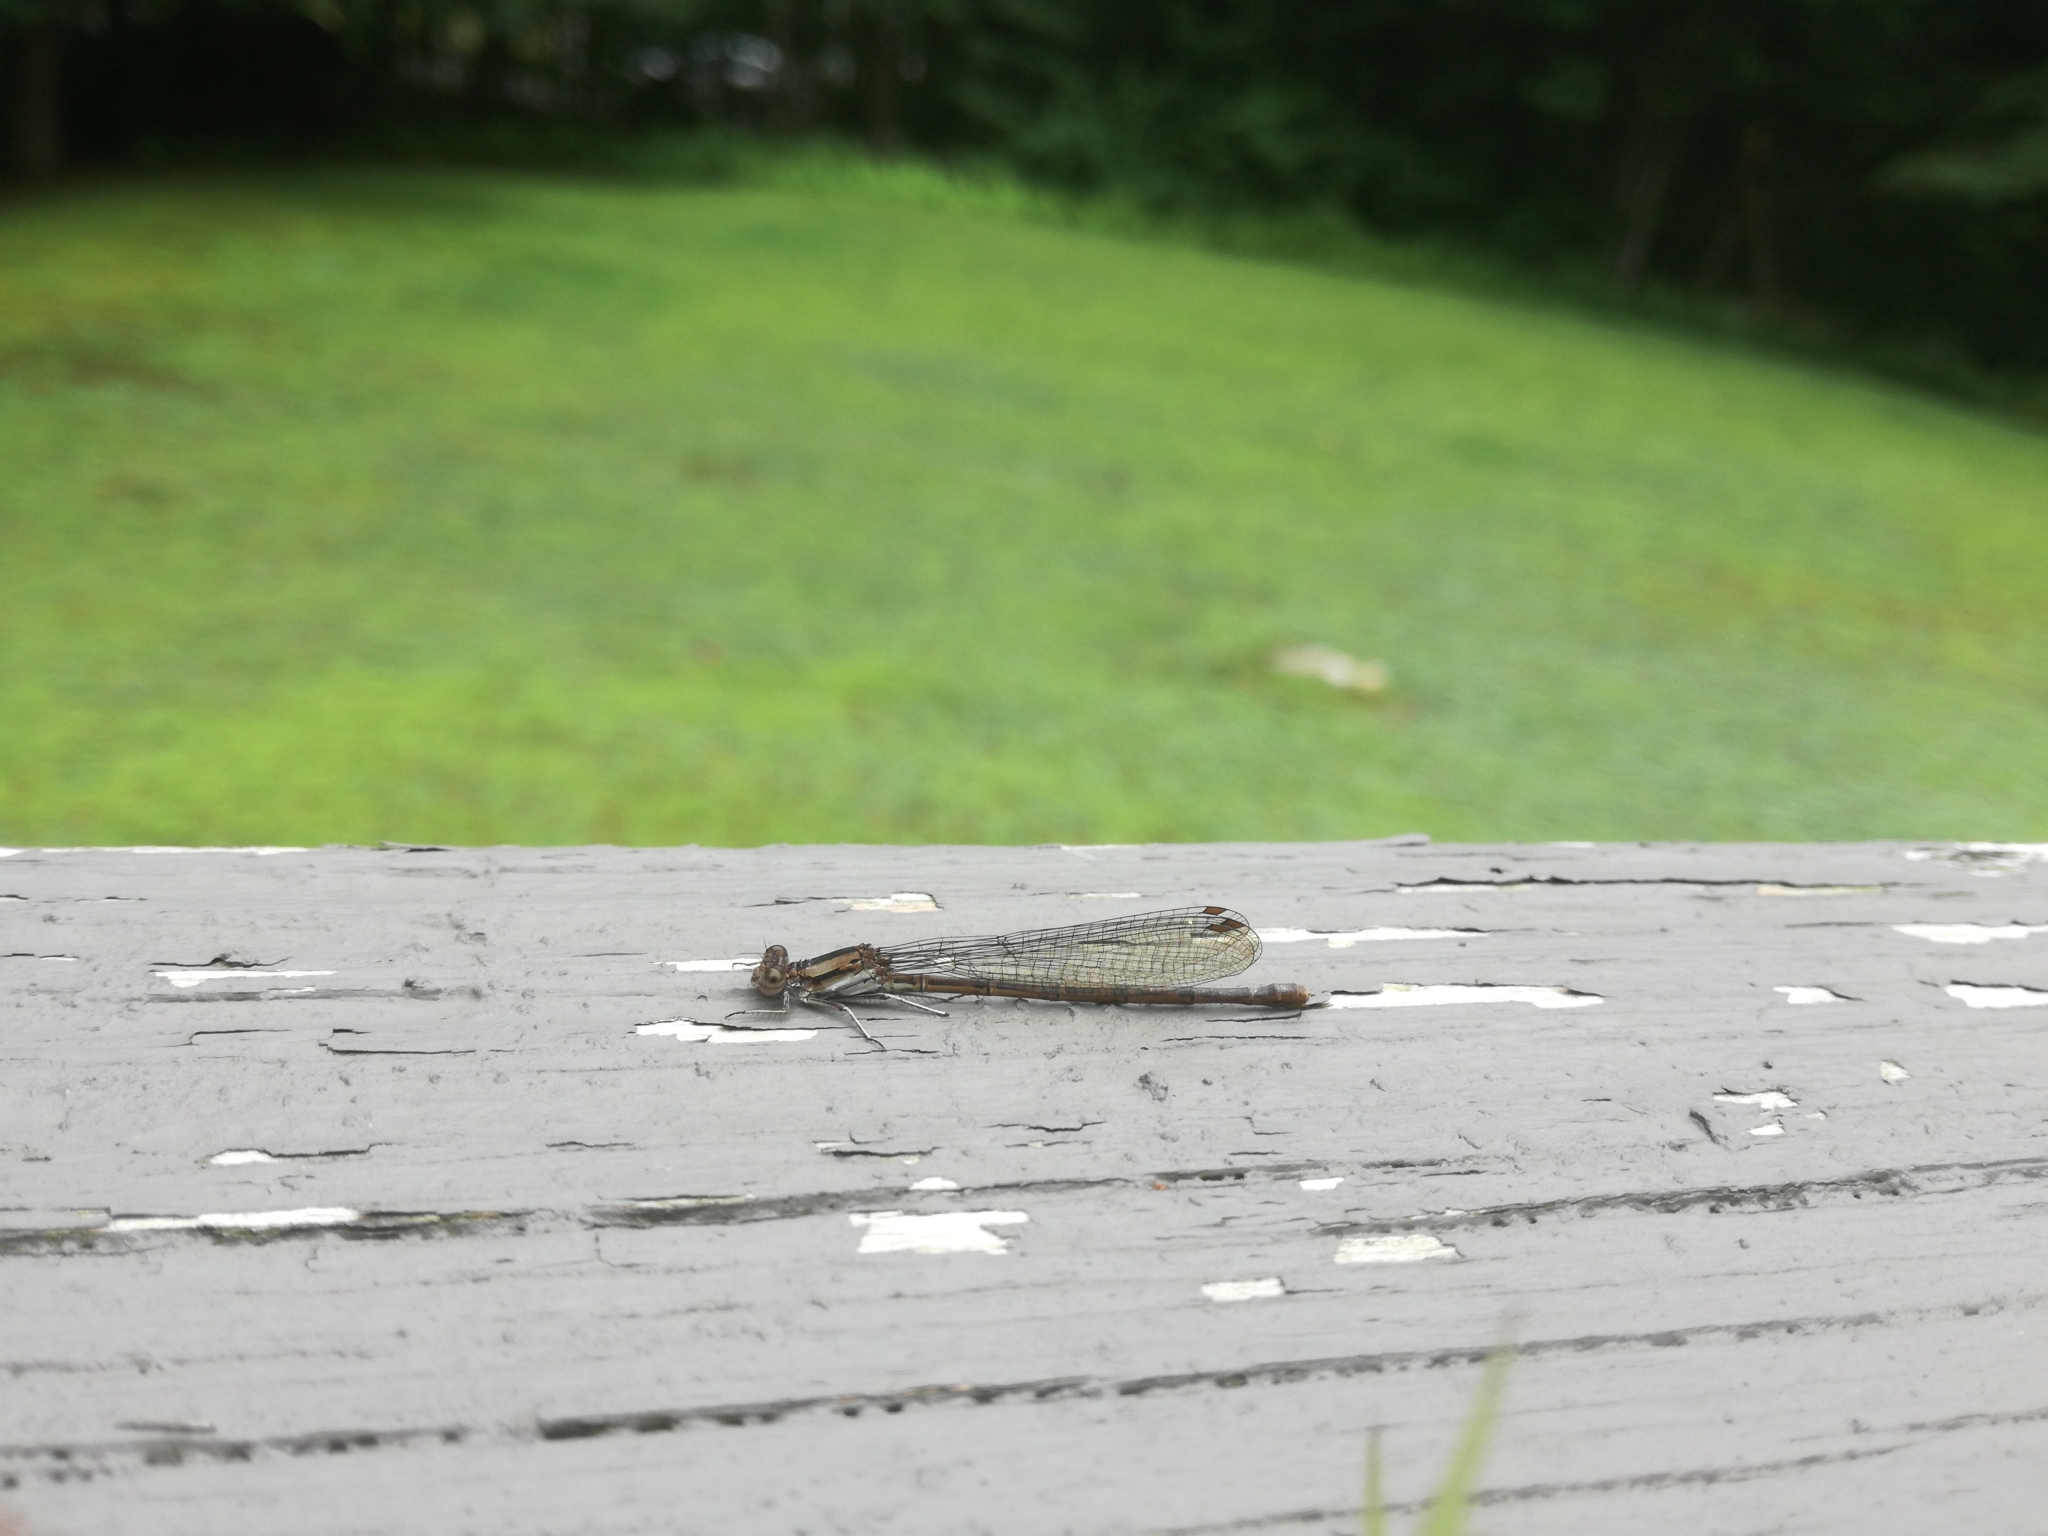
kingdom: Animalia
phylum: Arthropoda
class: Insecta
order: Odonata
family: Coenagrionidae
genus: Argia
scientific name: Argia fumipennis
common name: Variable dancer
